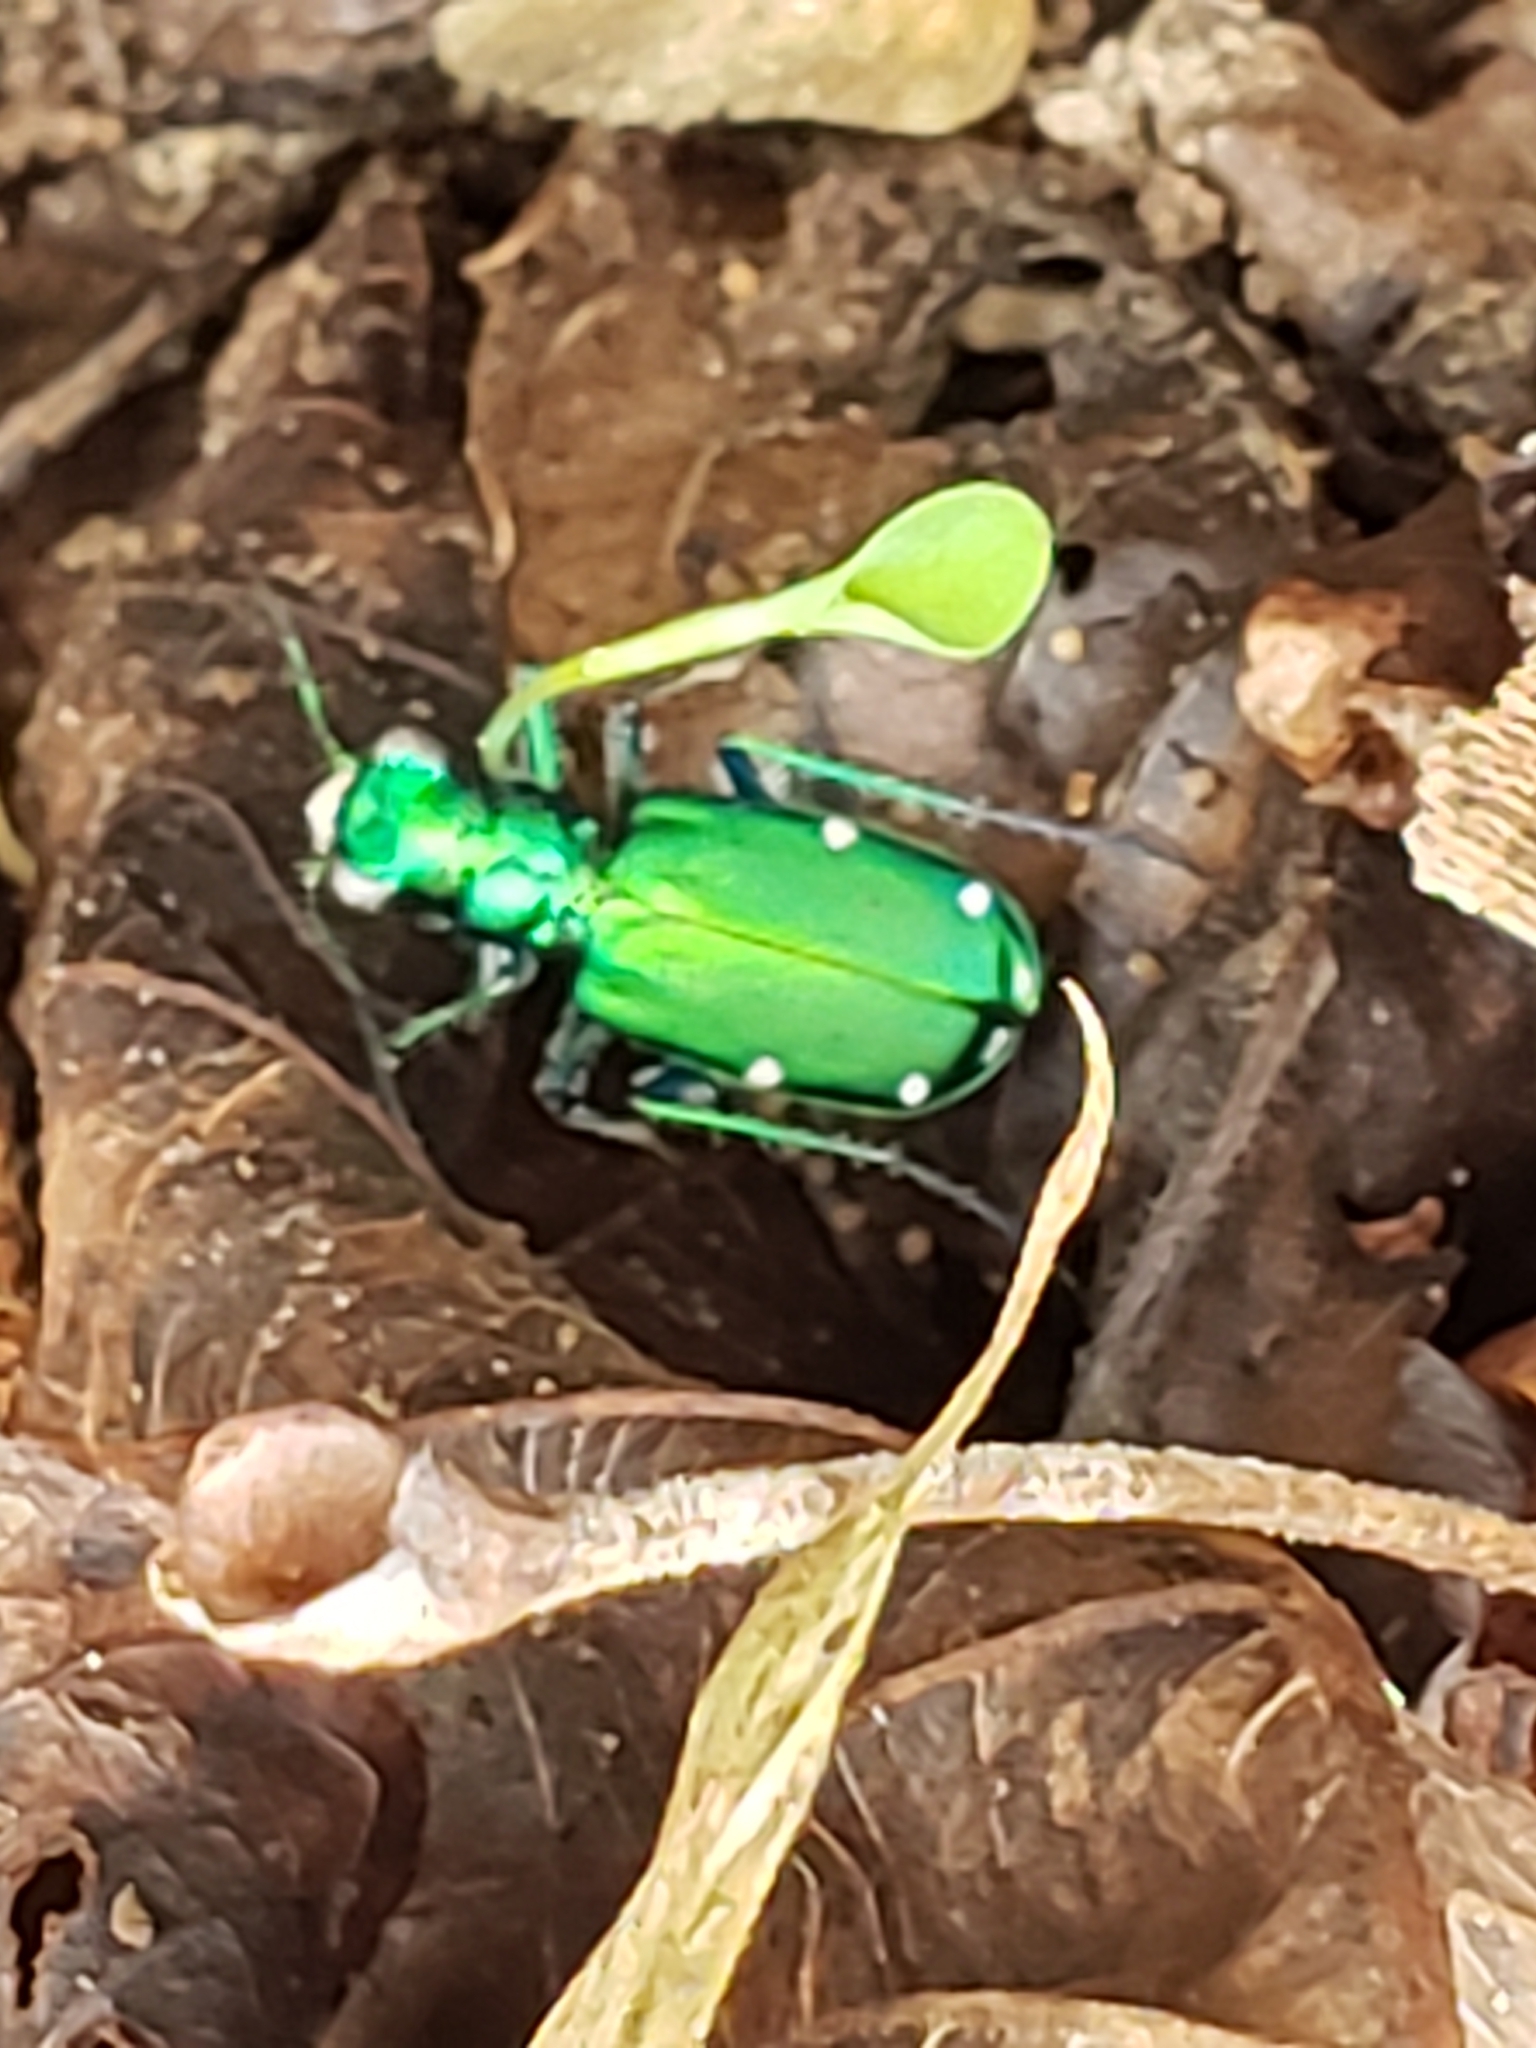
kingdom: Animalia
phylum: Arthropoda
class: Insecta
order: Coleoptera
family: Carabidae
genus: Cicindela
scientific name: Cicindela sexguttata
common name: Six-spotted tiger beetle
